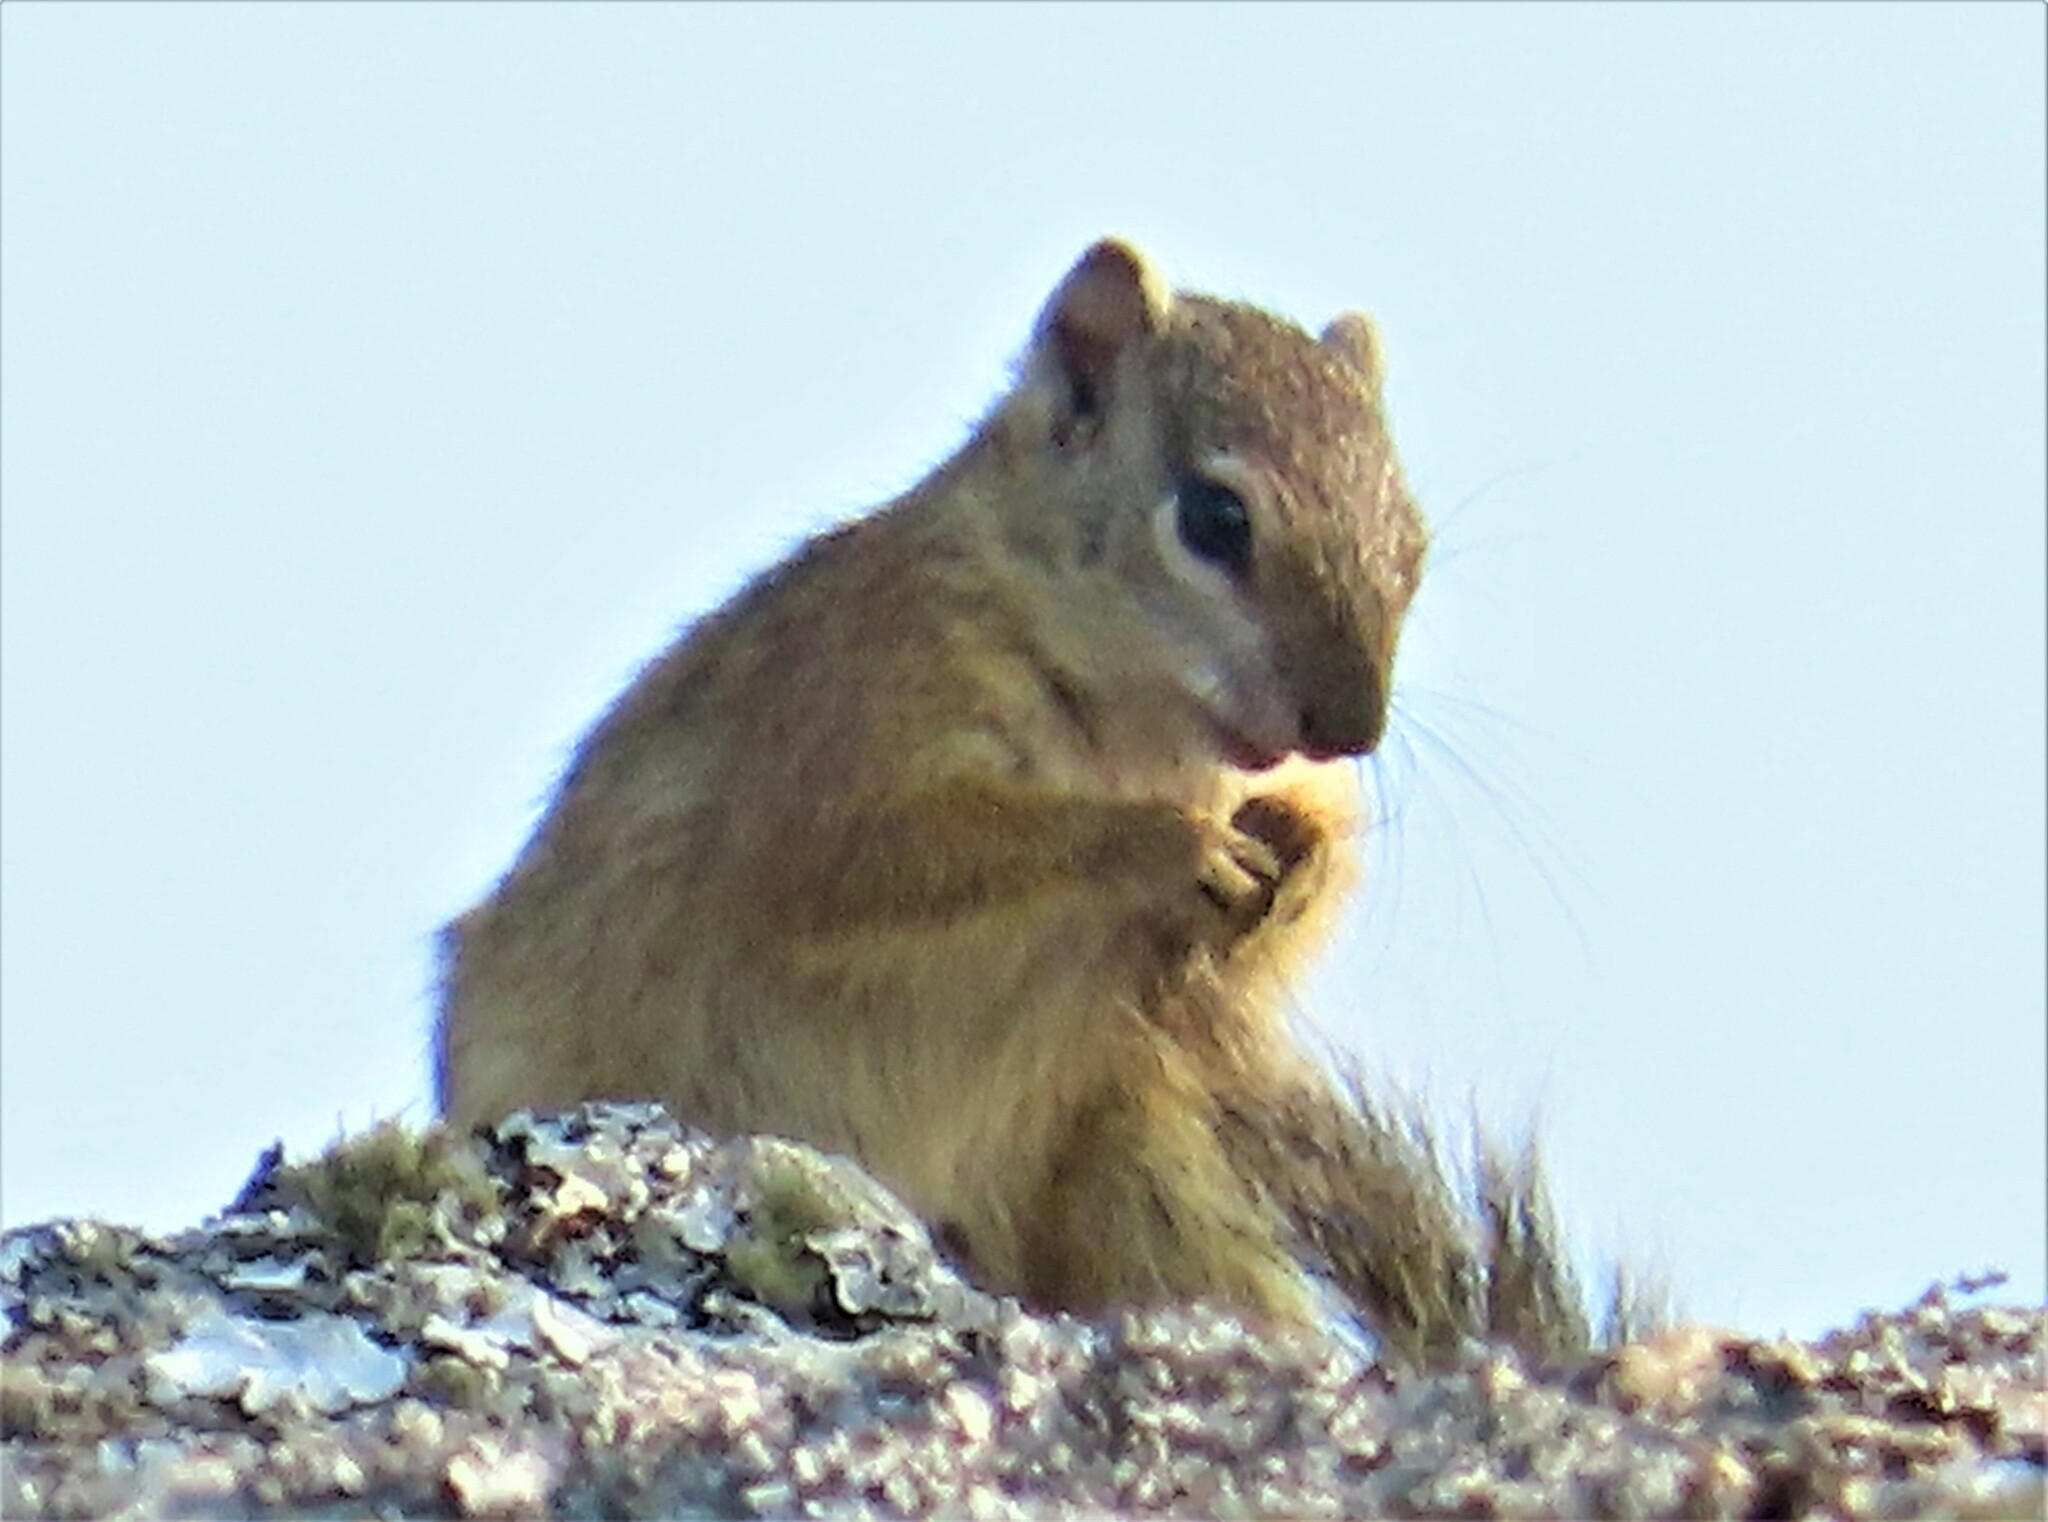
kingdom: Animalia
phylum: Chordata
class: Mammalia
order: Rodentia
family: Sciuridae
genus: Paraxerus
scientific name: Paraxerus cepapi
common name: Smith's bush squirrel
